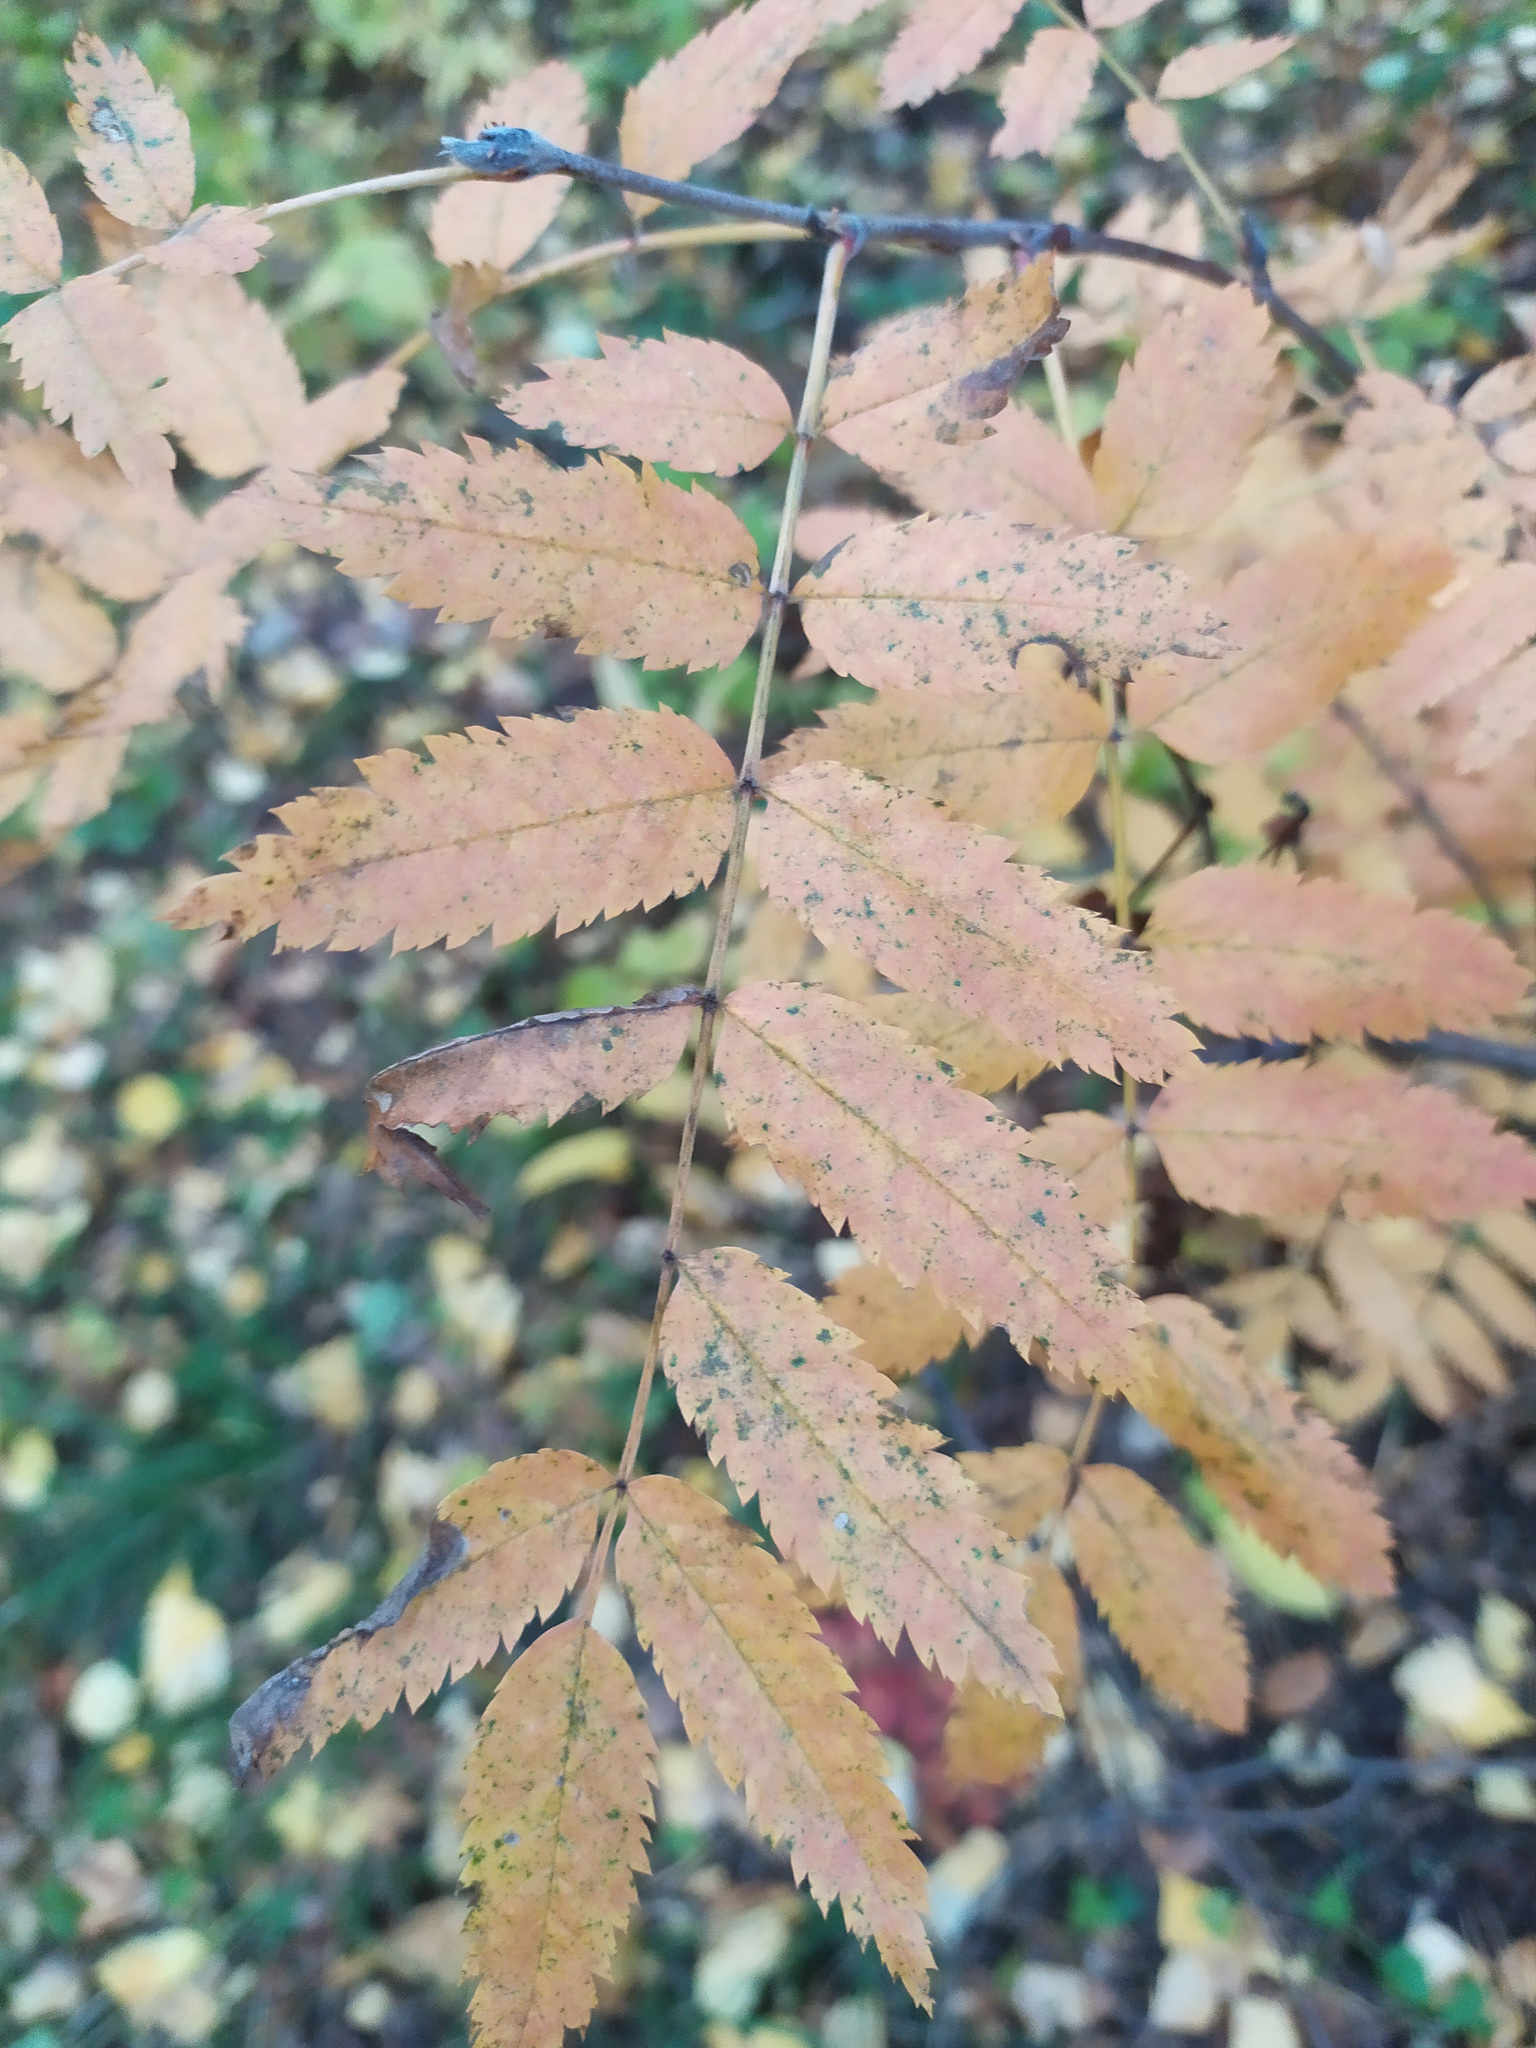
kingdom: Plantae
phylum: Tracheophyta
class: Magnoliopsida
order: Rosales
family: Rosaceae
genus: Sorbus
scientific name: Sorbus aucuparia
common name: Rowan
